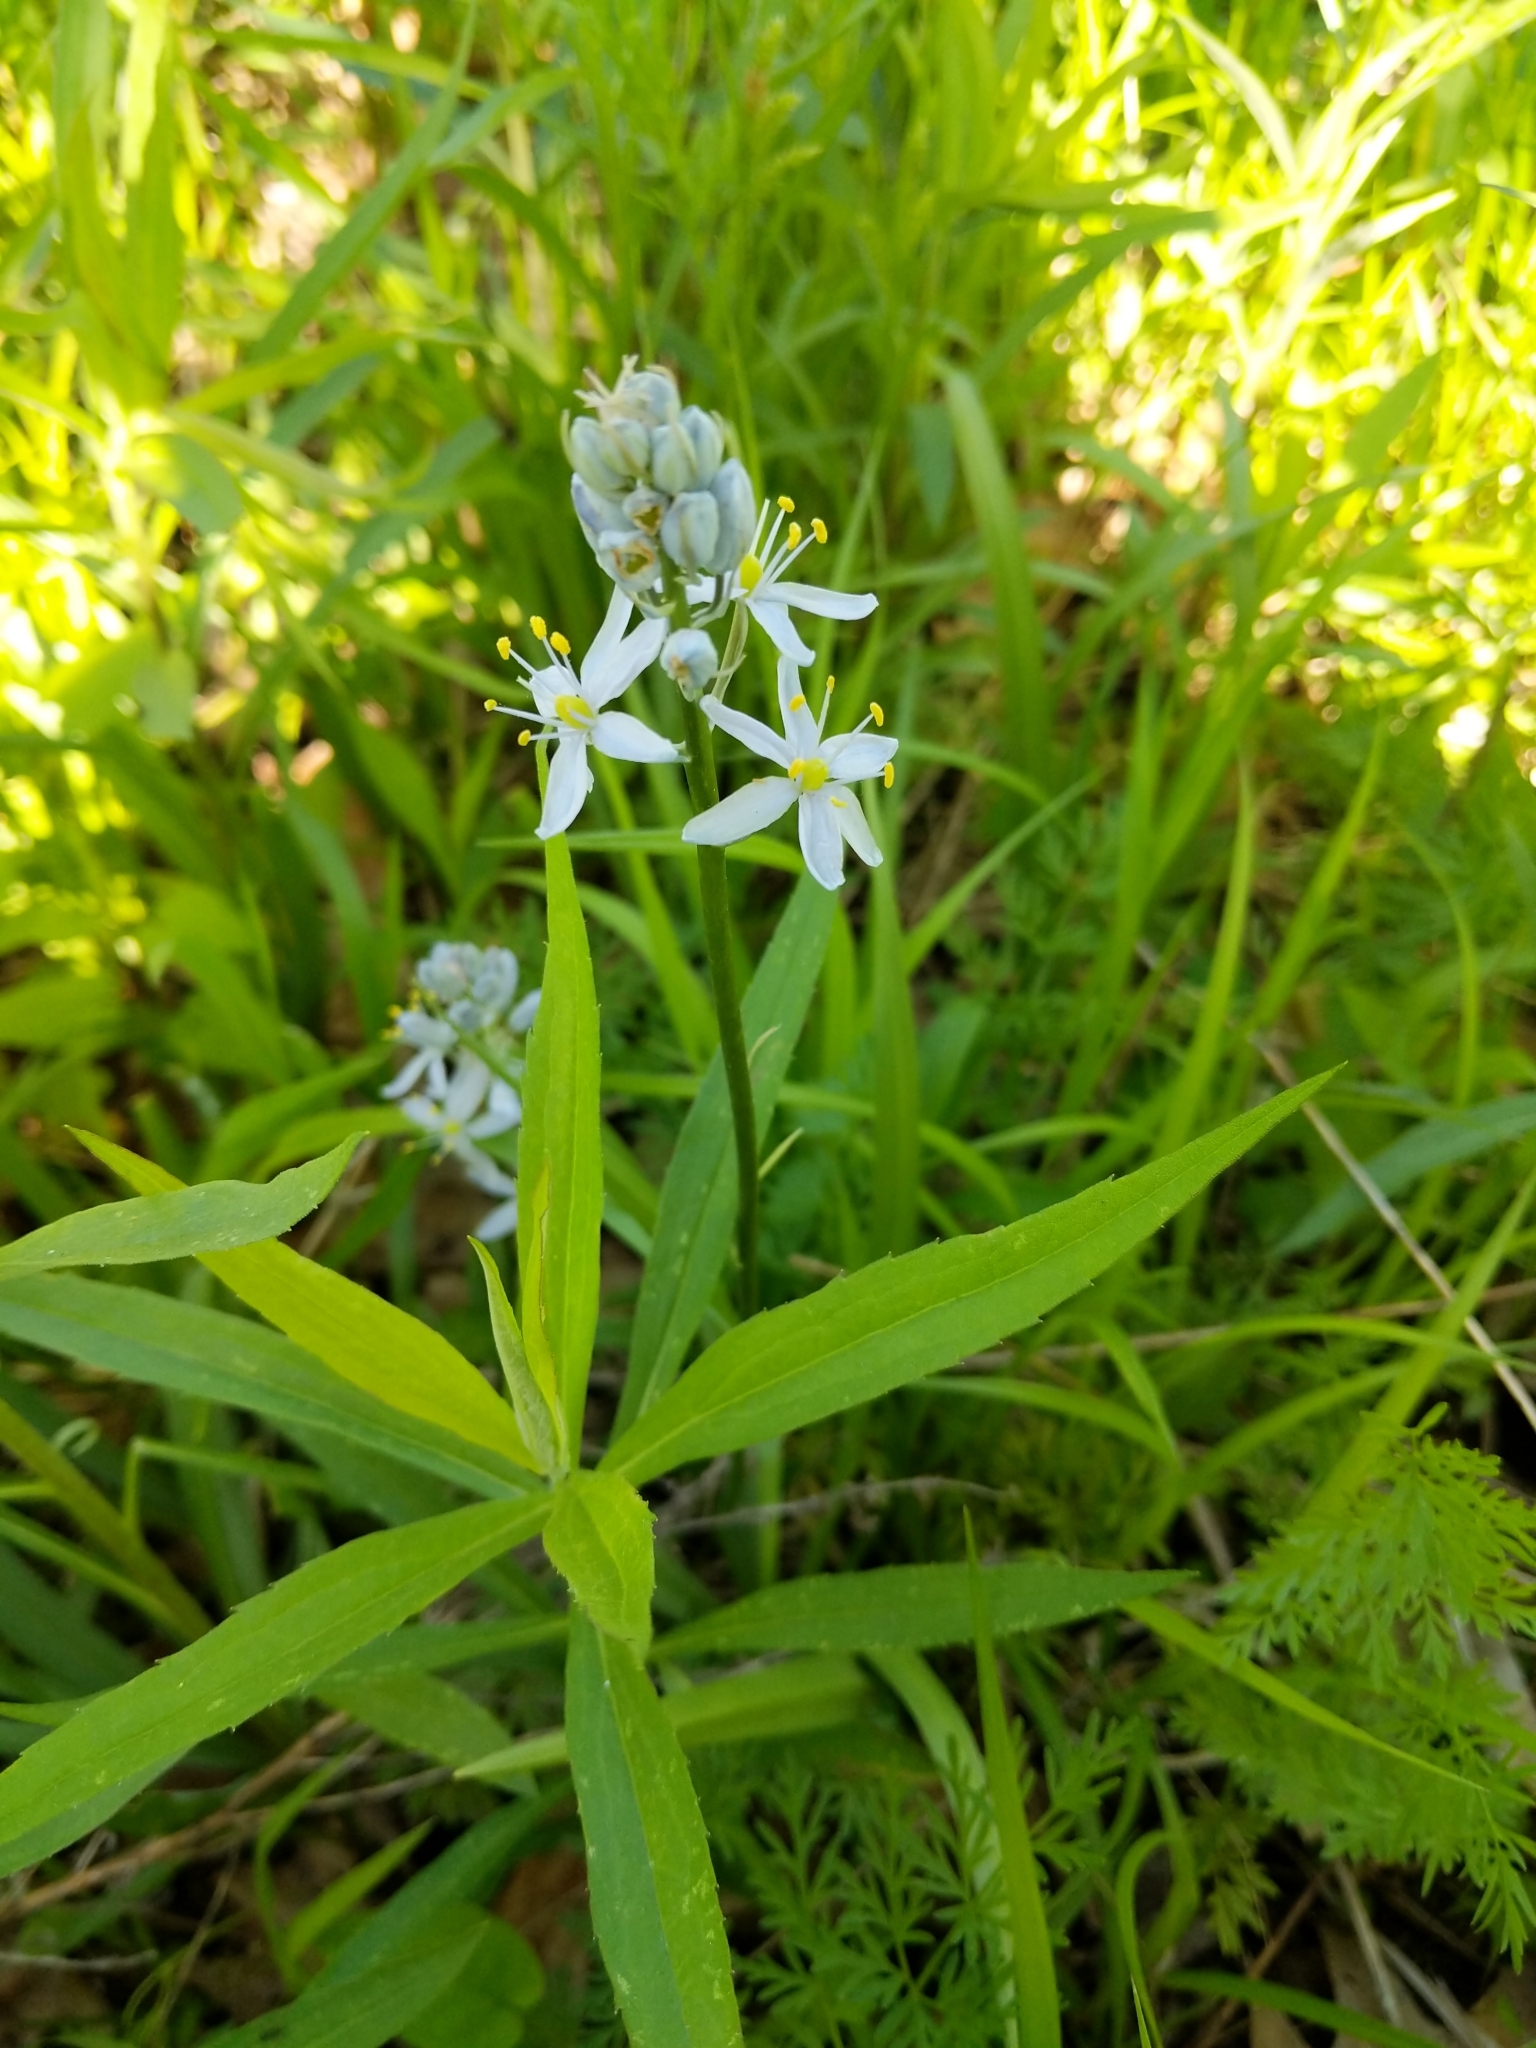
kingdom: Plantae
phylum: Tracheophyta
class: Liliopsida
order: Asparagales
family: Asparagaceae
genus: Camassia
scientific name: Camassia scilloides
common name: Wild hyacinth
